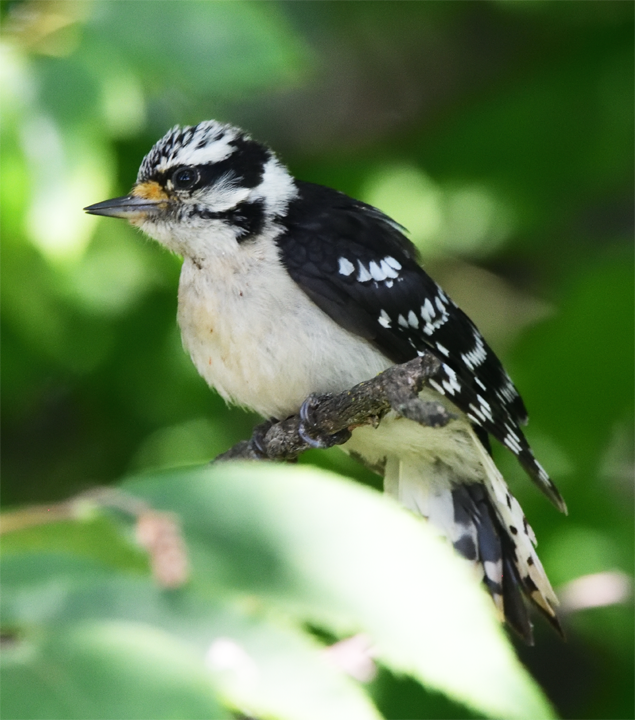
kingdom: Animalia
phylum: Chordata
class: Aves
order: Piciformes
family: Picidae
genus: Dryobates
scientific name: Dryobates pubescens
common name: Downy woodpecker
